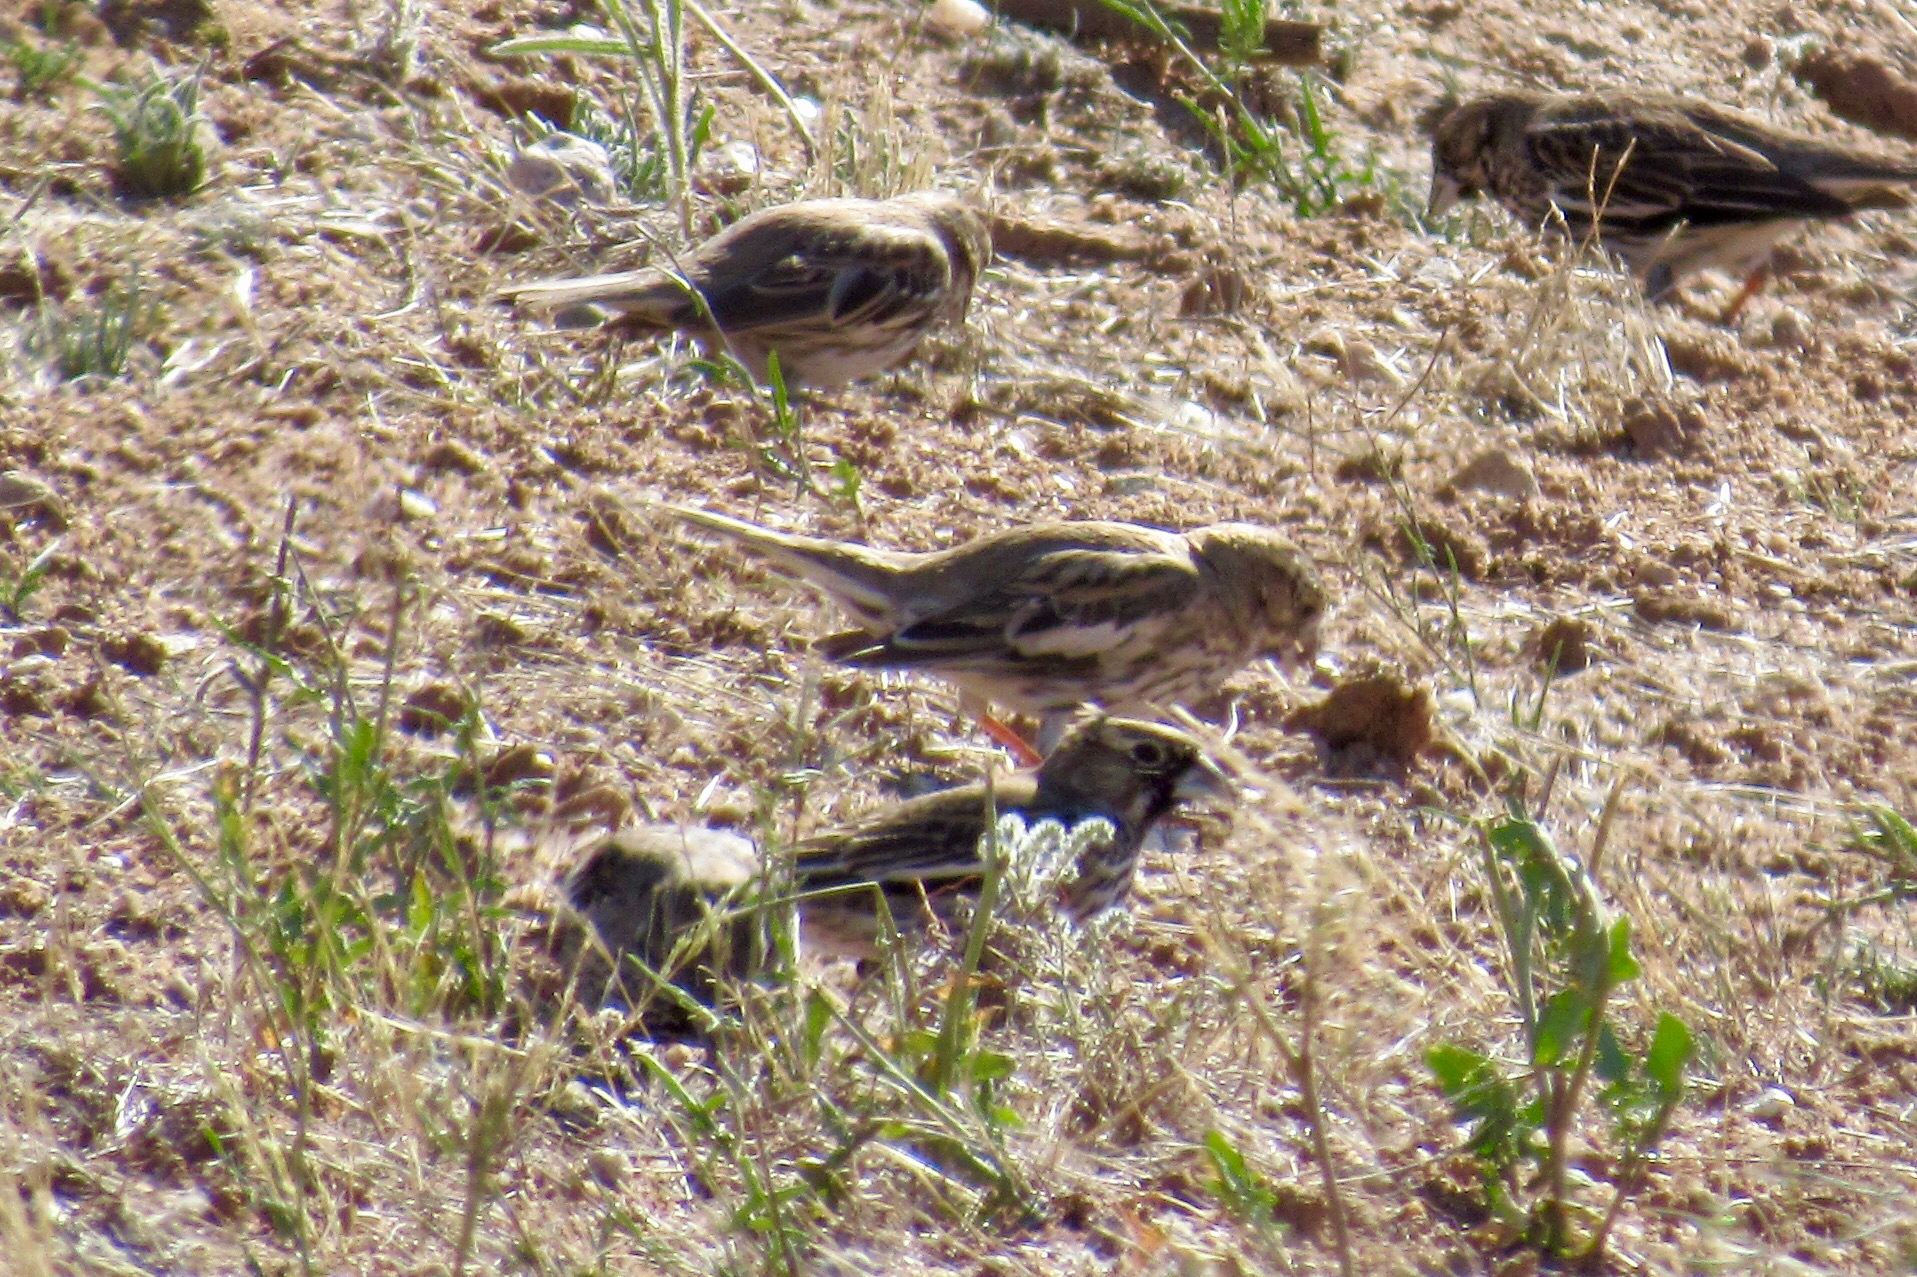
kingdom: Animalia
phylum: Chordata
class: Aves
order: Passeriformes
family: Passerellidae
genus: Calamospiza
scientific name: Calamospiza melanocorys
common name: Lark bunting
